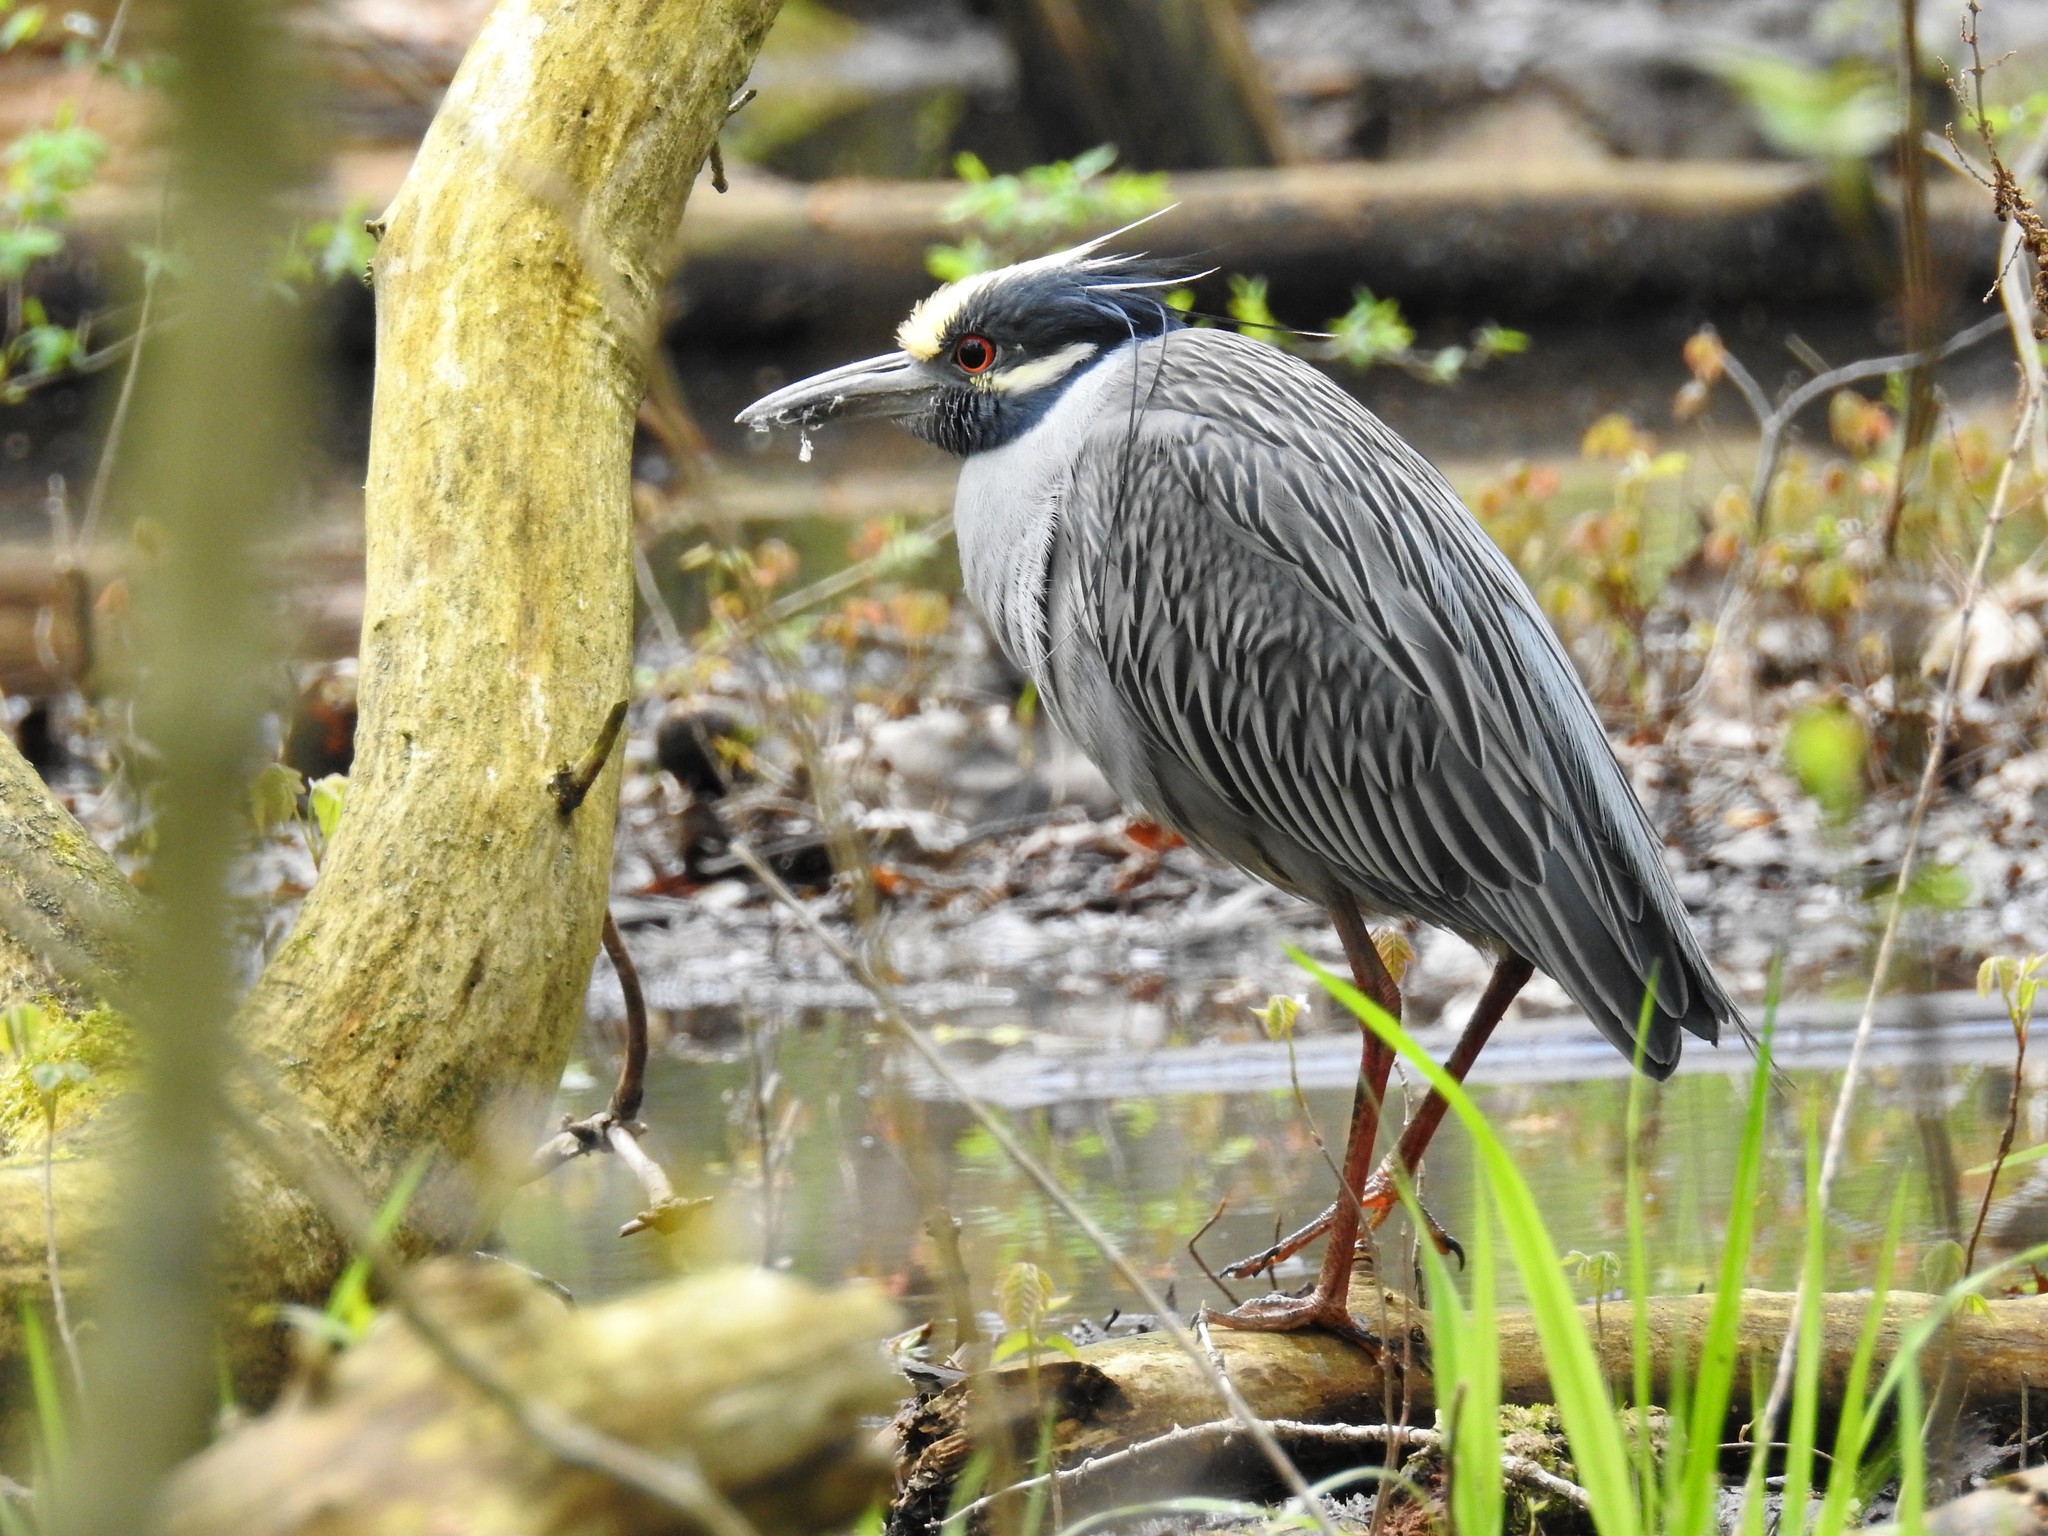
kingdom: Animalia
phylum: Chordata
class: Aves
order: Pelecaniformes
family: Ardeidae
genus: Nyctanassa
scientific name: Nyctanassa violacea
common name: Yellow-crowned night heron
